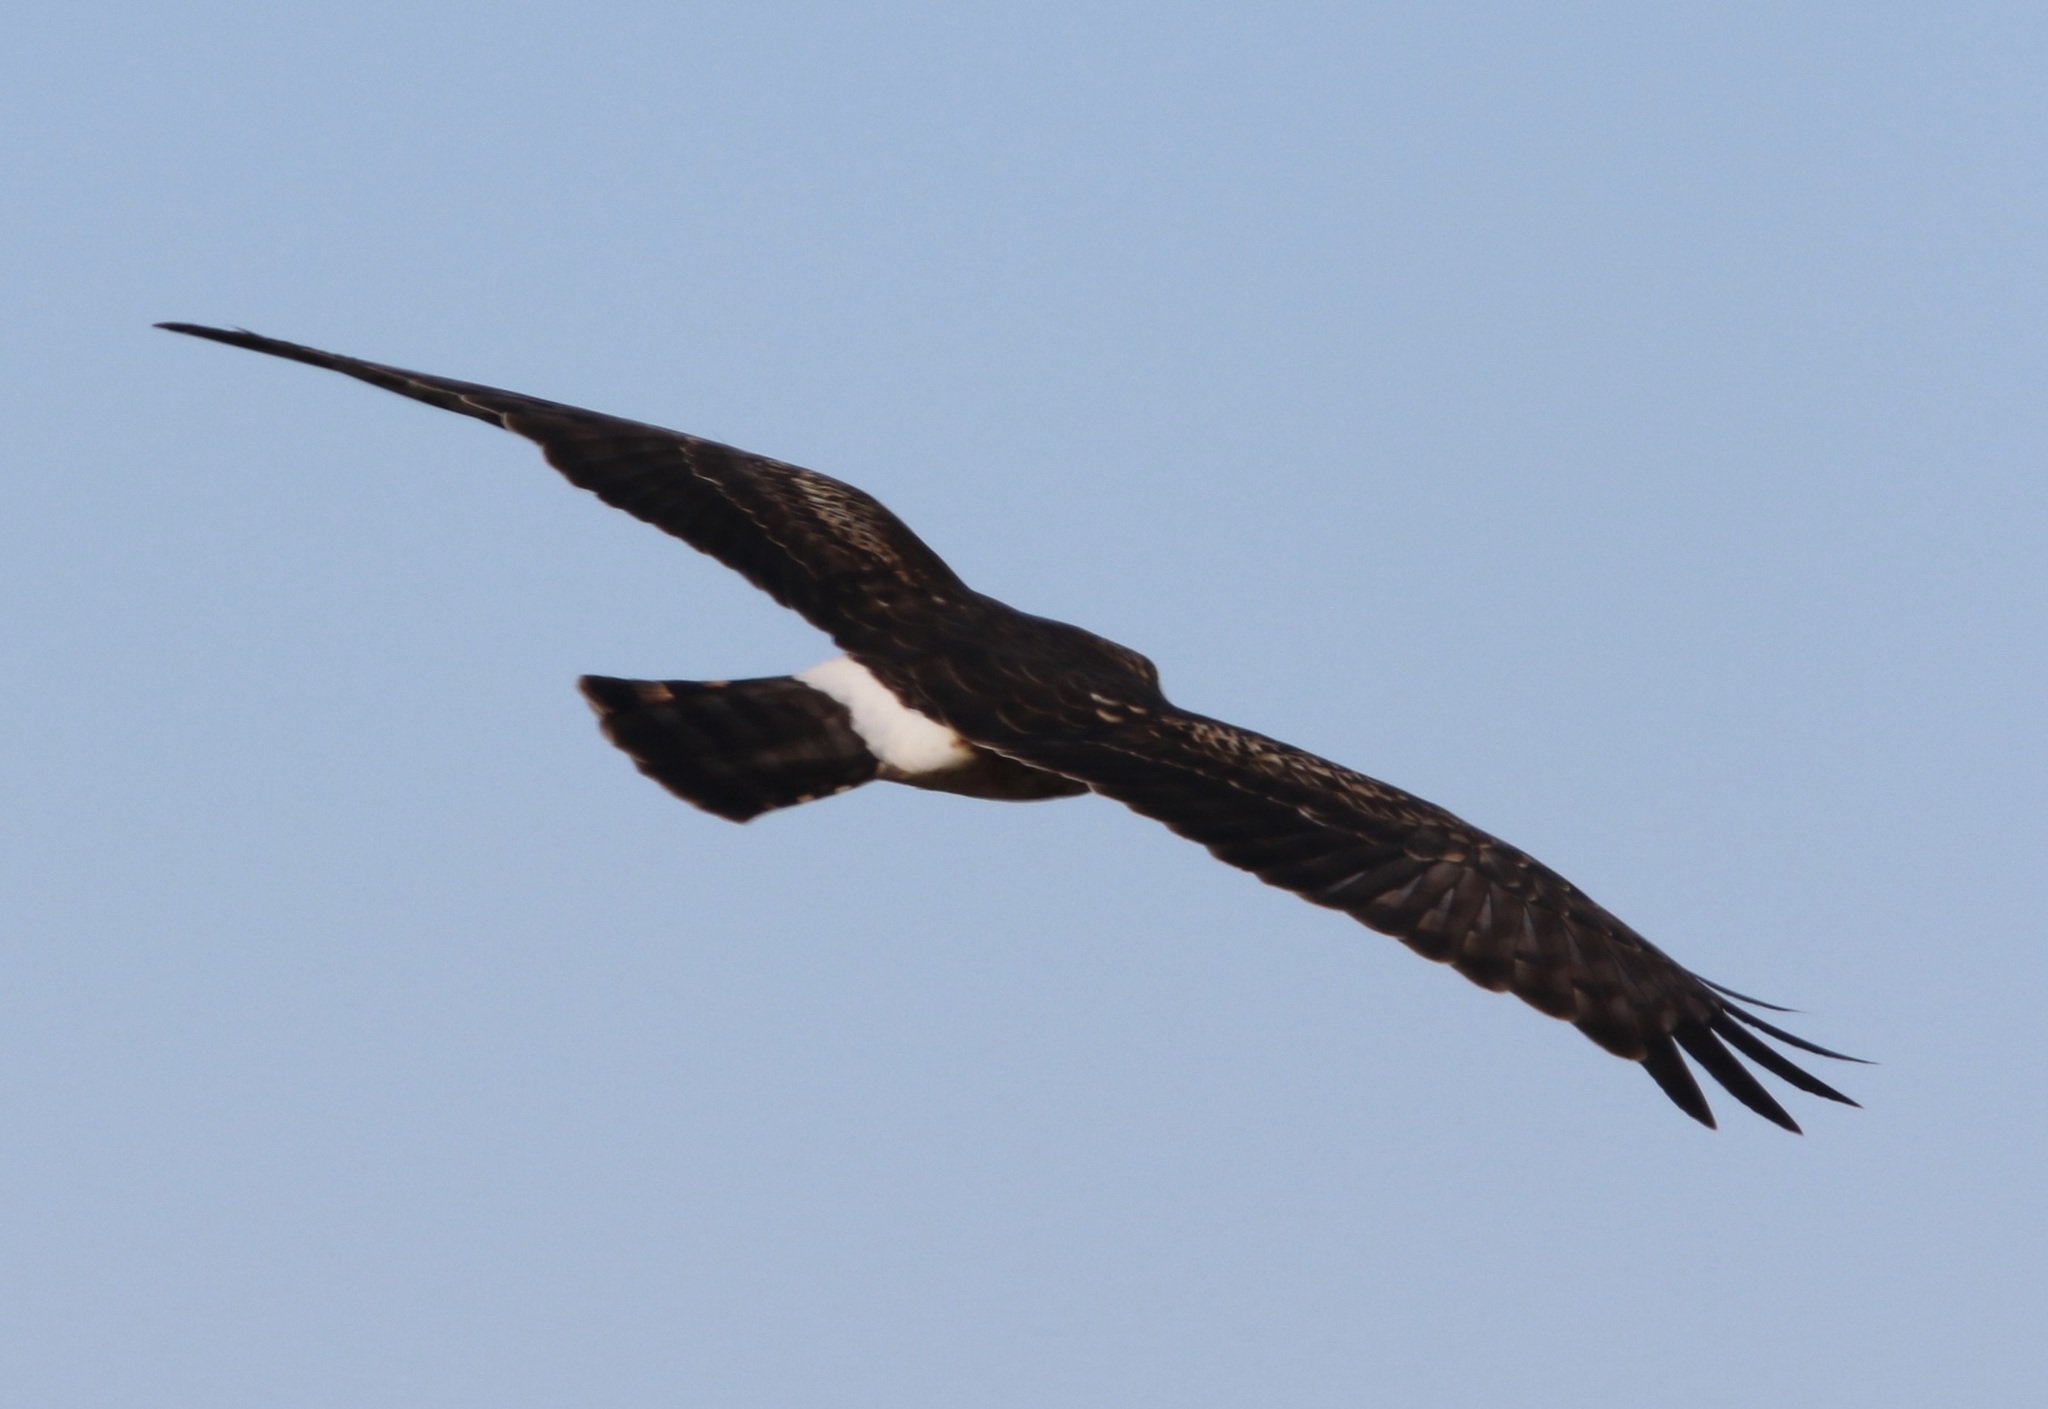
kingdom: Animalia
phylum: Chordata
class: Aves
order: Accipitriformes
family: Accipitridae
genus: Circus
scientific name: Circus cyaneus
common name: Hen harrier
